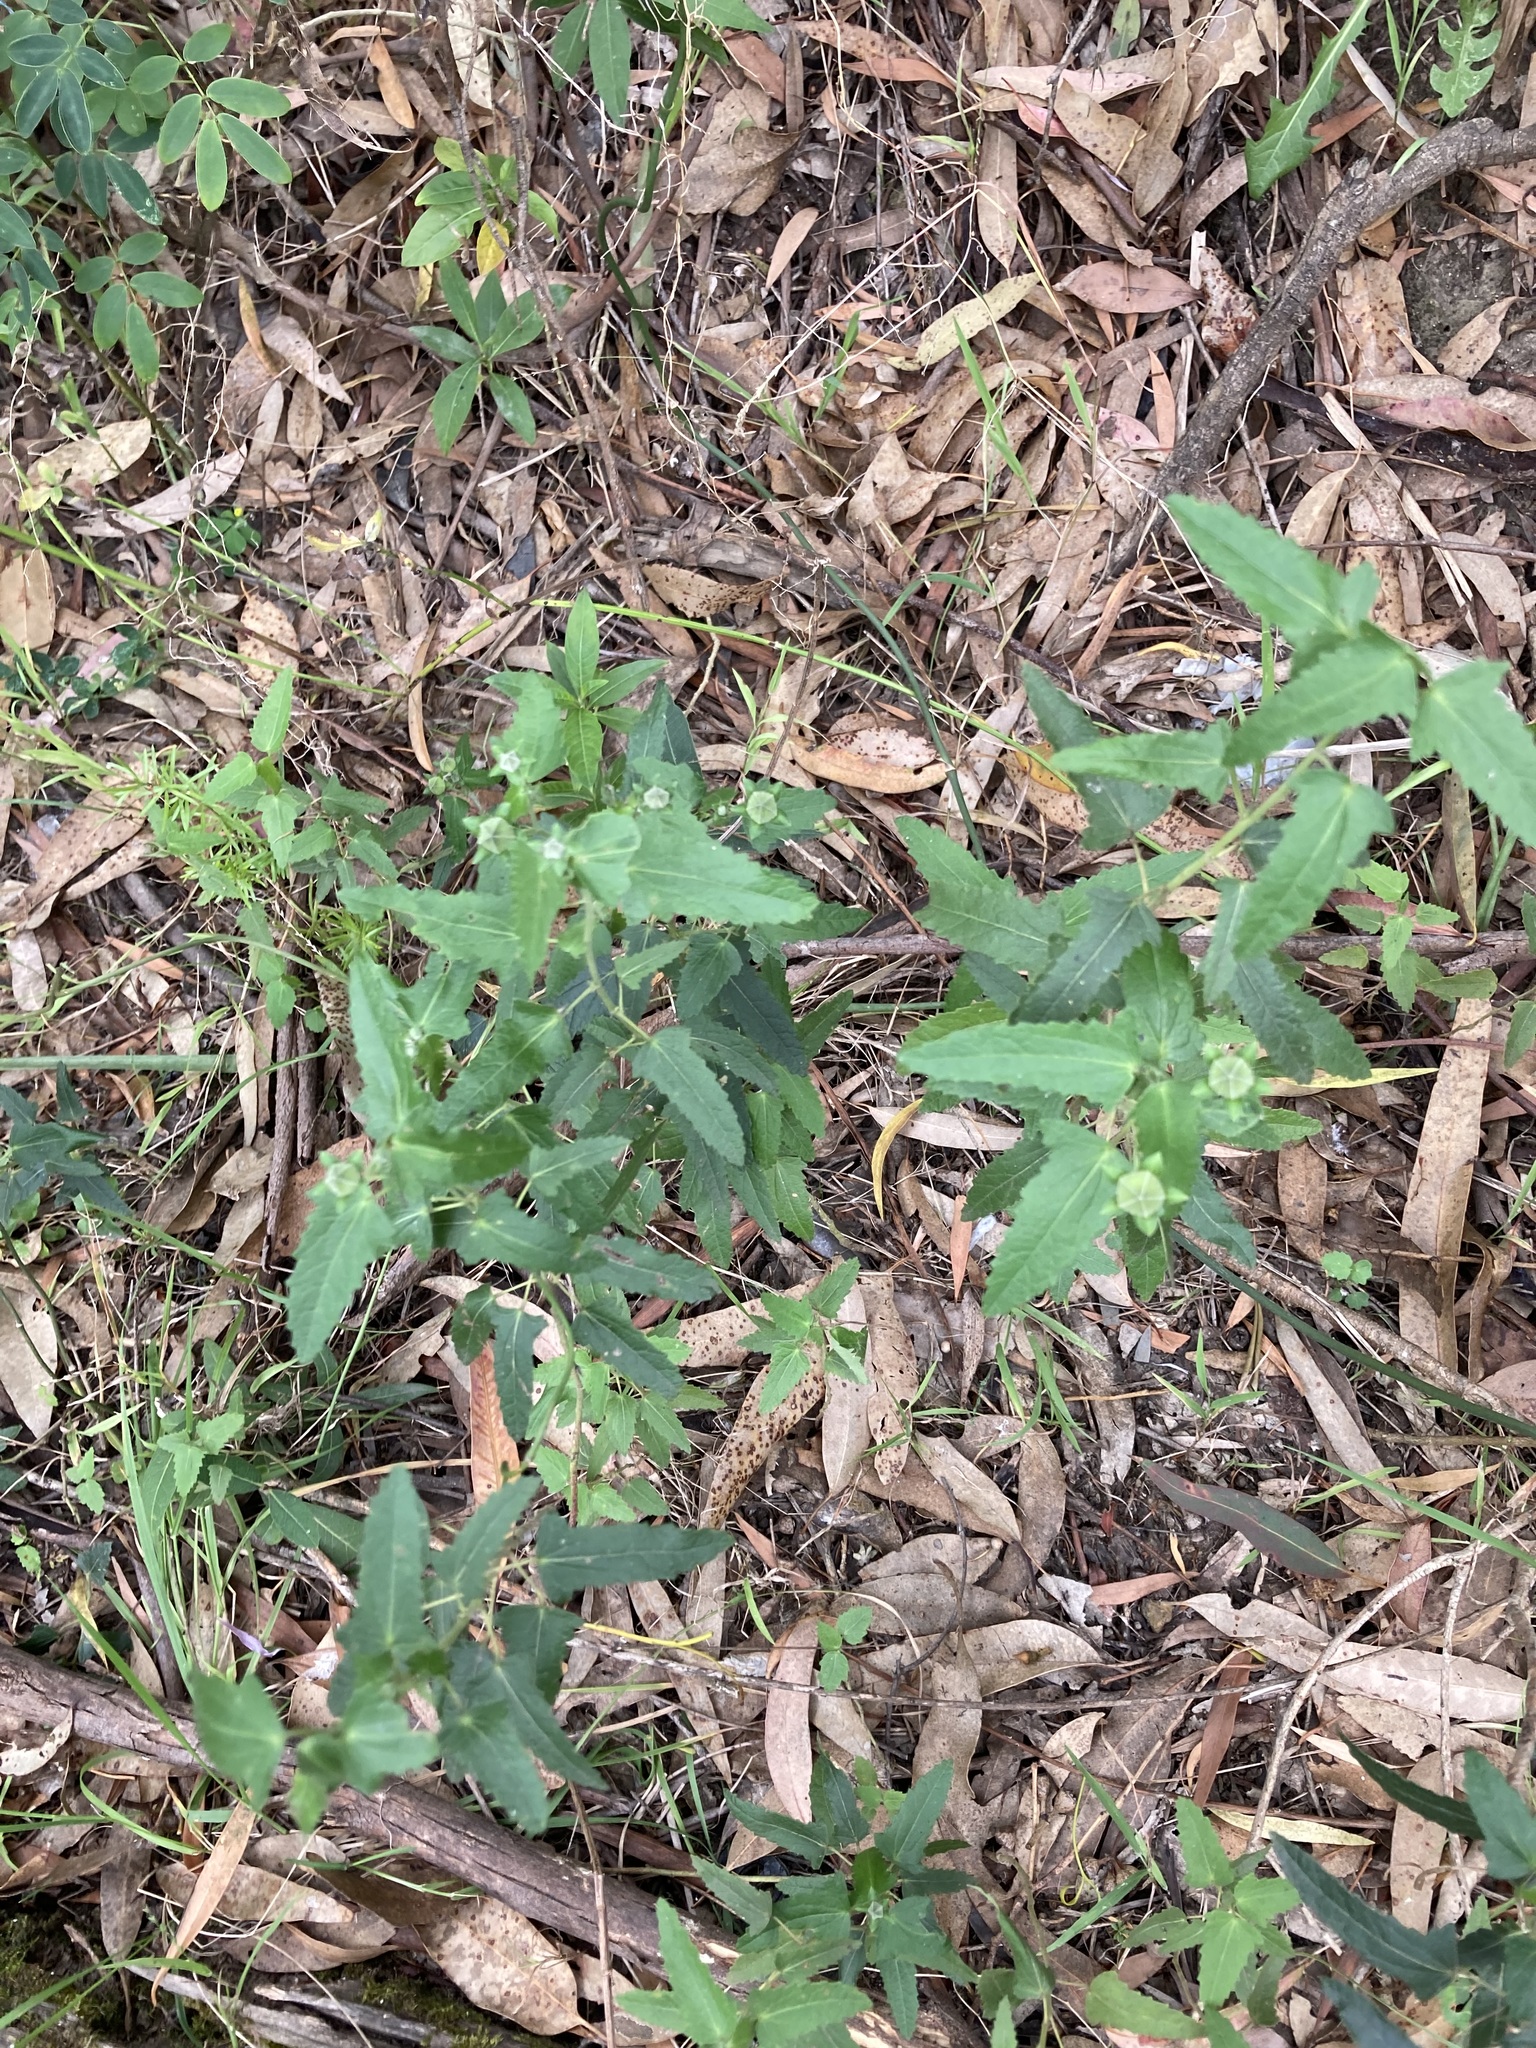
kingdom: Plantae
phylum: Tracheophyta
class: Magnoliopsida
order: Malvales
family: Malvaceae
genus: Pavonia
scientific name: Pavonia hastata
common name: Spearleaf swampmallow
